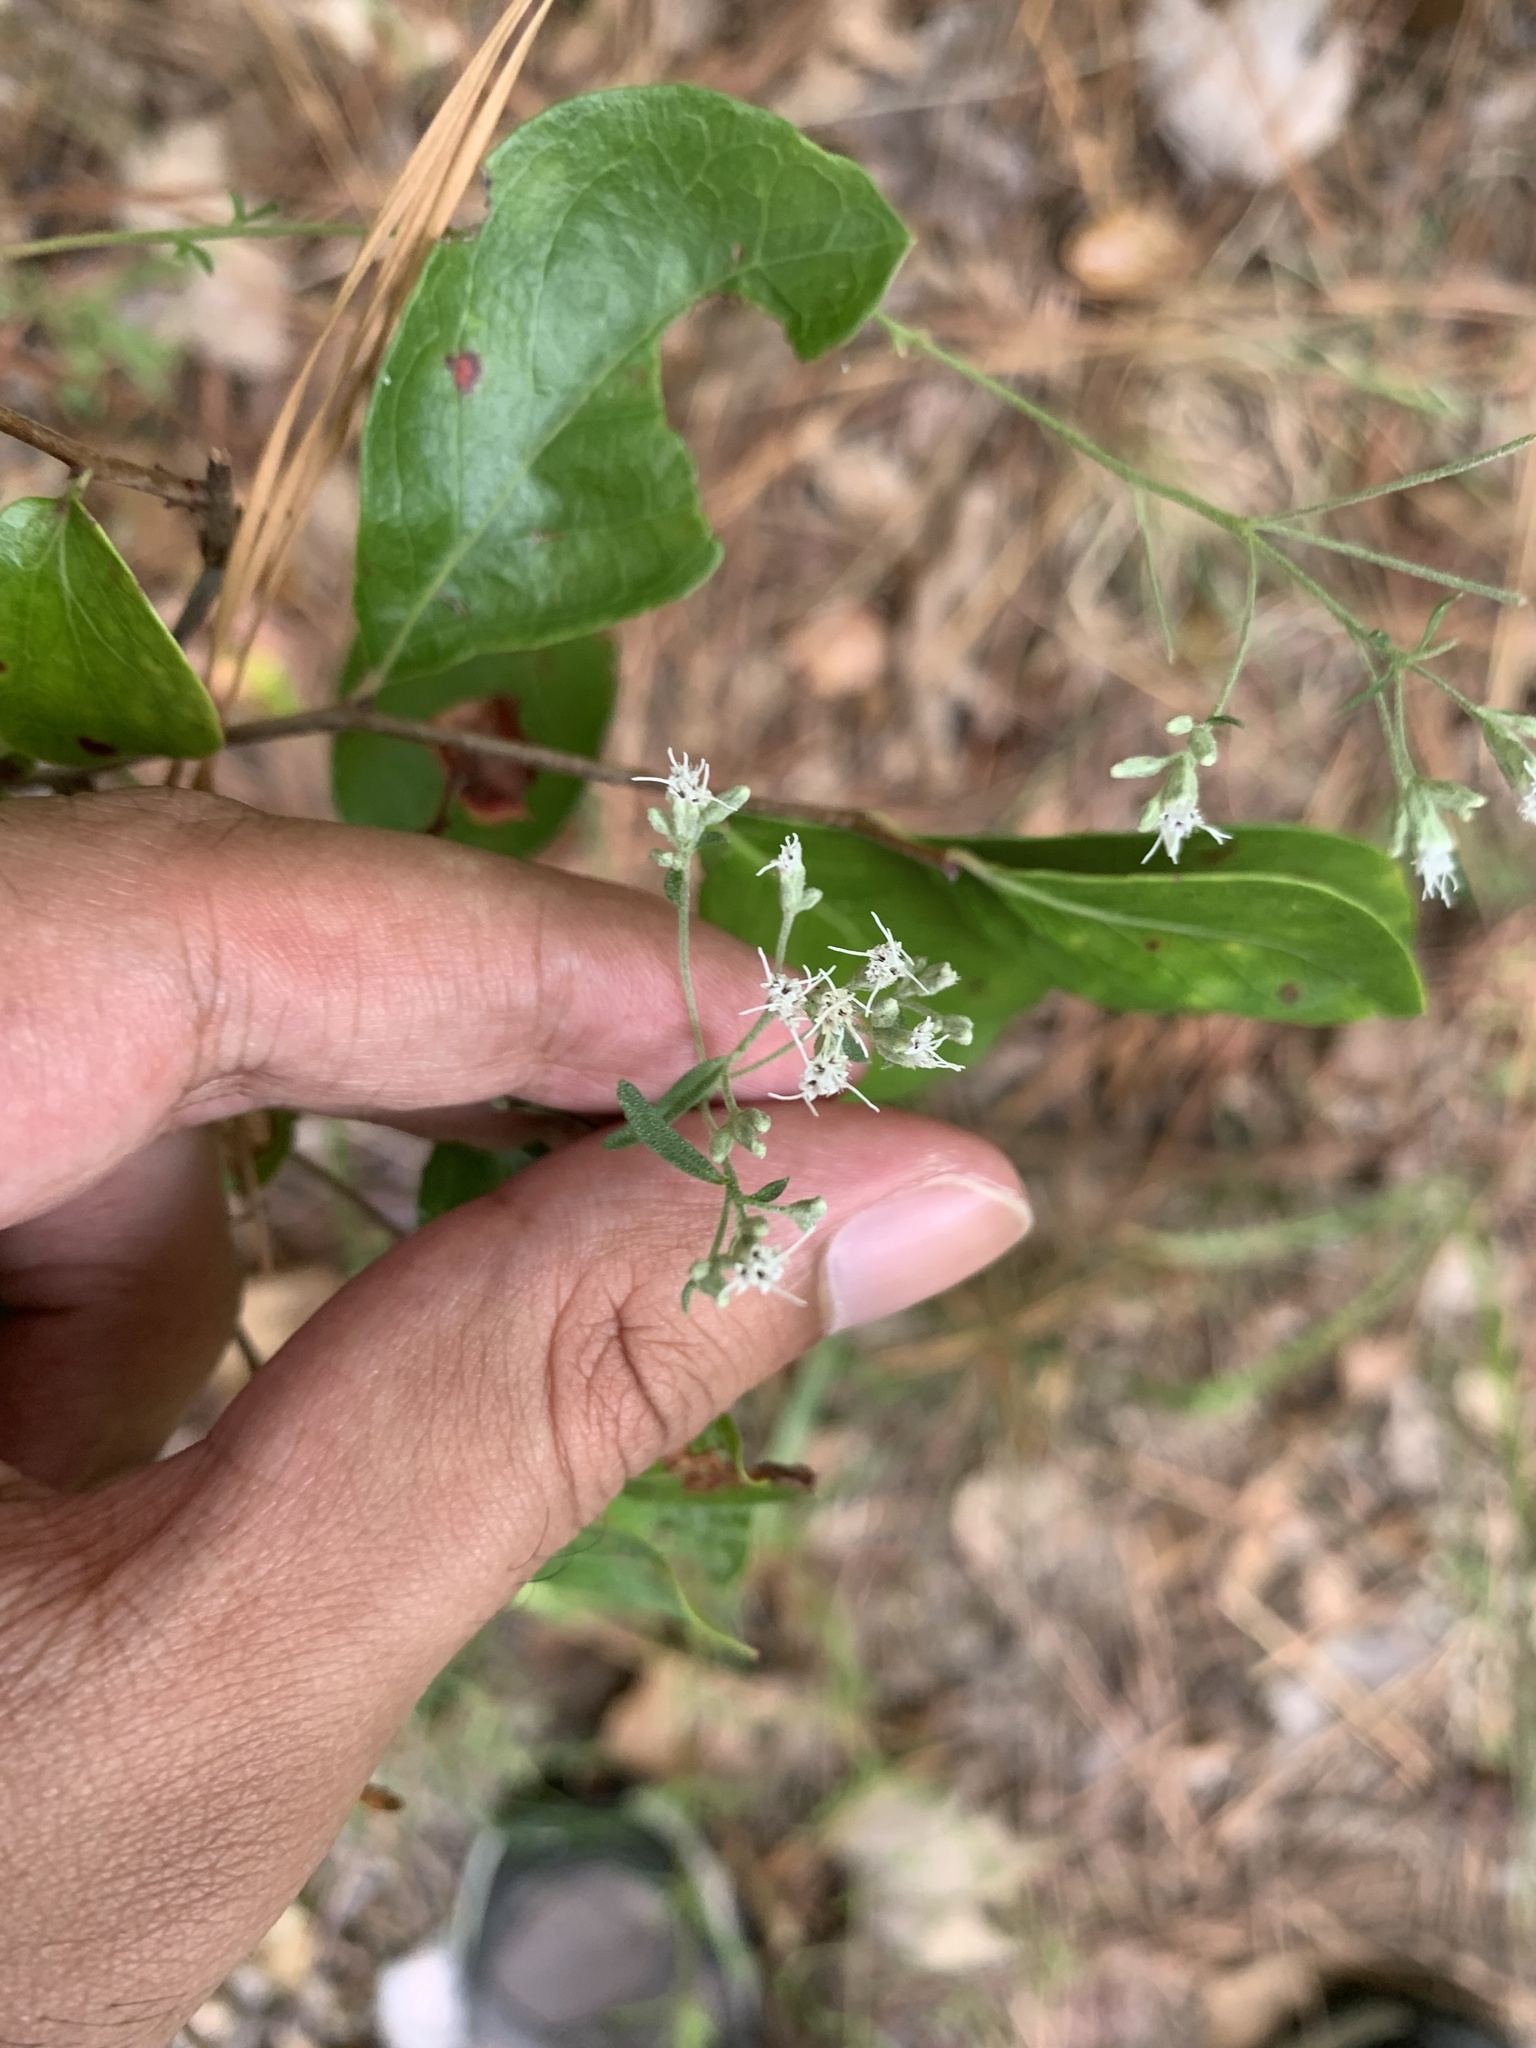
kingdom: Plantae
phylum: Tracheophyta
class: Magnoliopsida
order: Asterales
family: Asteraceae
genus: Eupatorium
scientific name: Eupatorium hyssopifolium
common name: Hyssop-leaf thoroughwort
